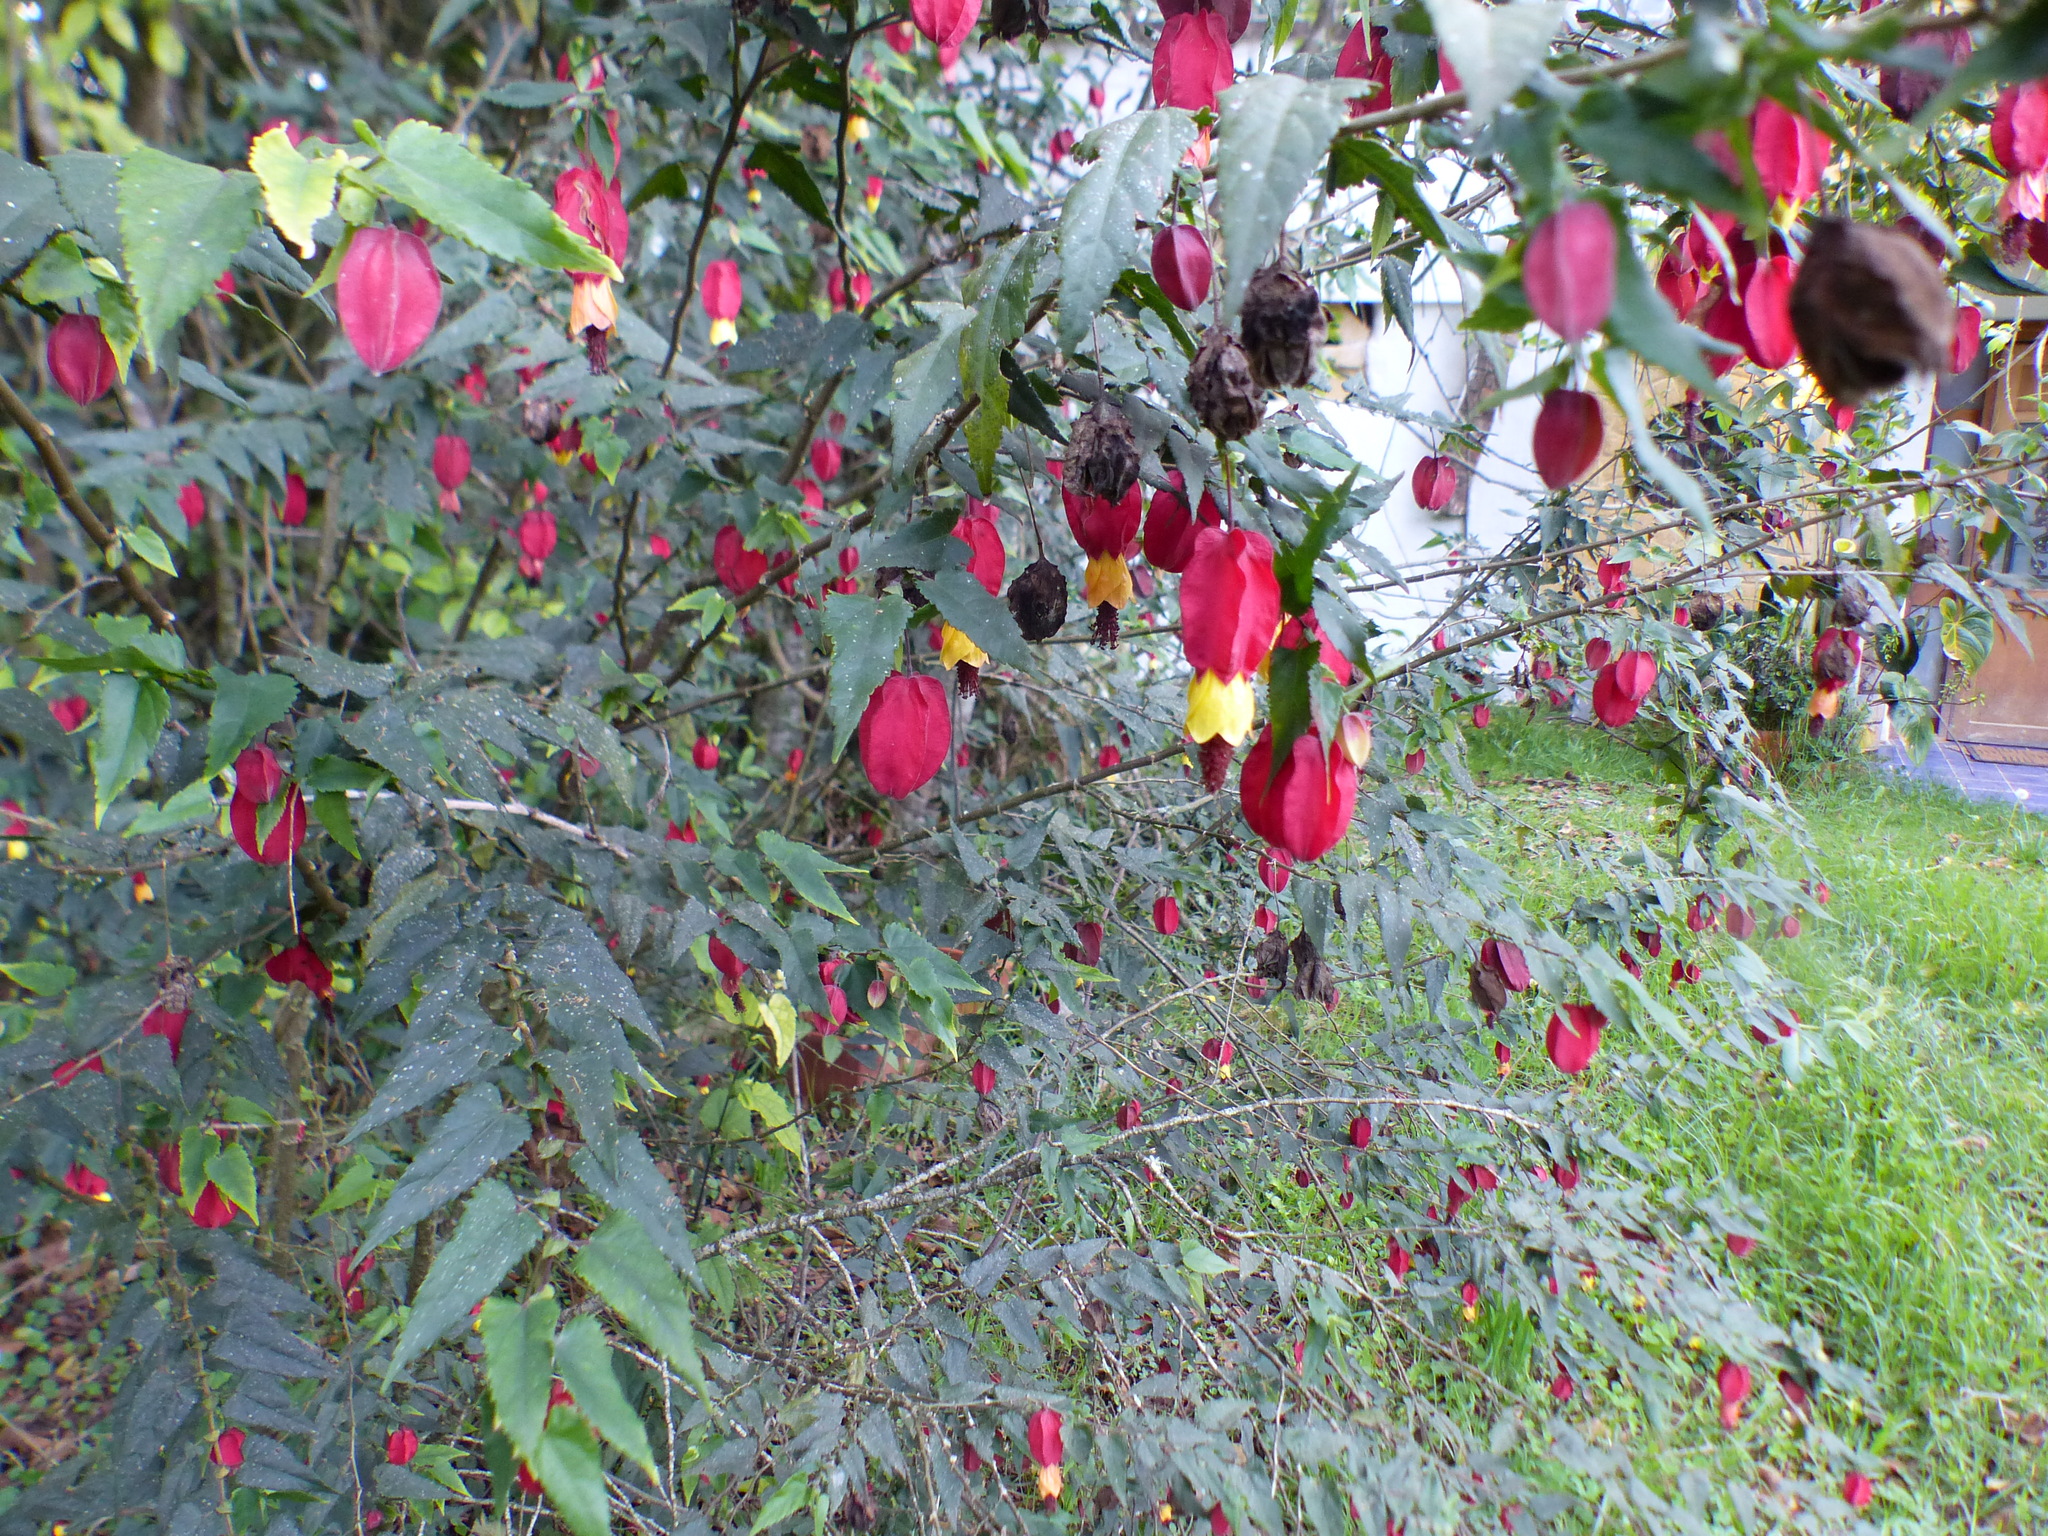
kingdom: Plantae
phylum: Tracheophyta
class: Magnoliopsida
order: Malvales
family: Malvaceae
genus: Callianthe
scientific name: Callianthe megapotamica
